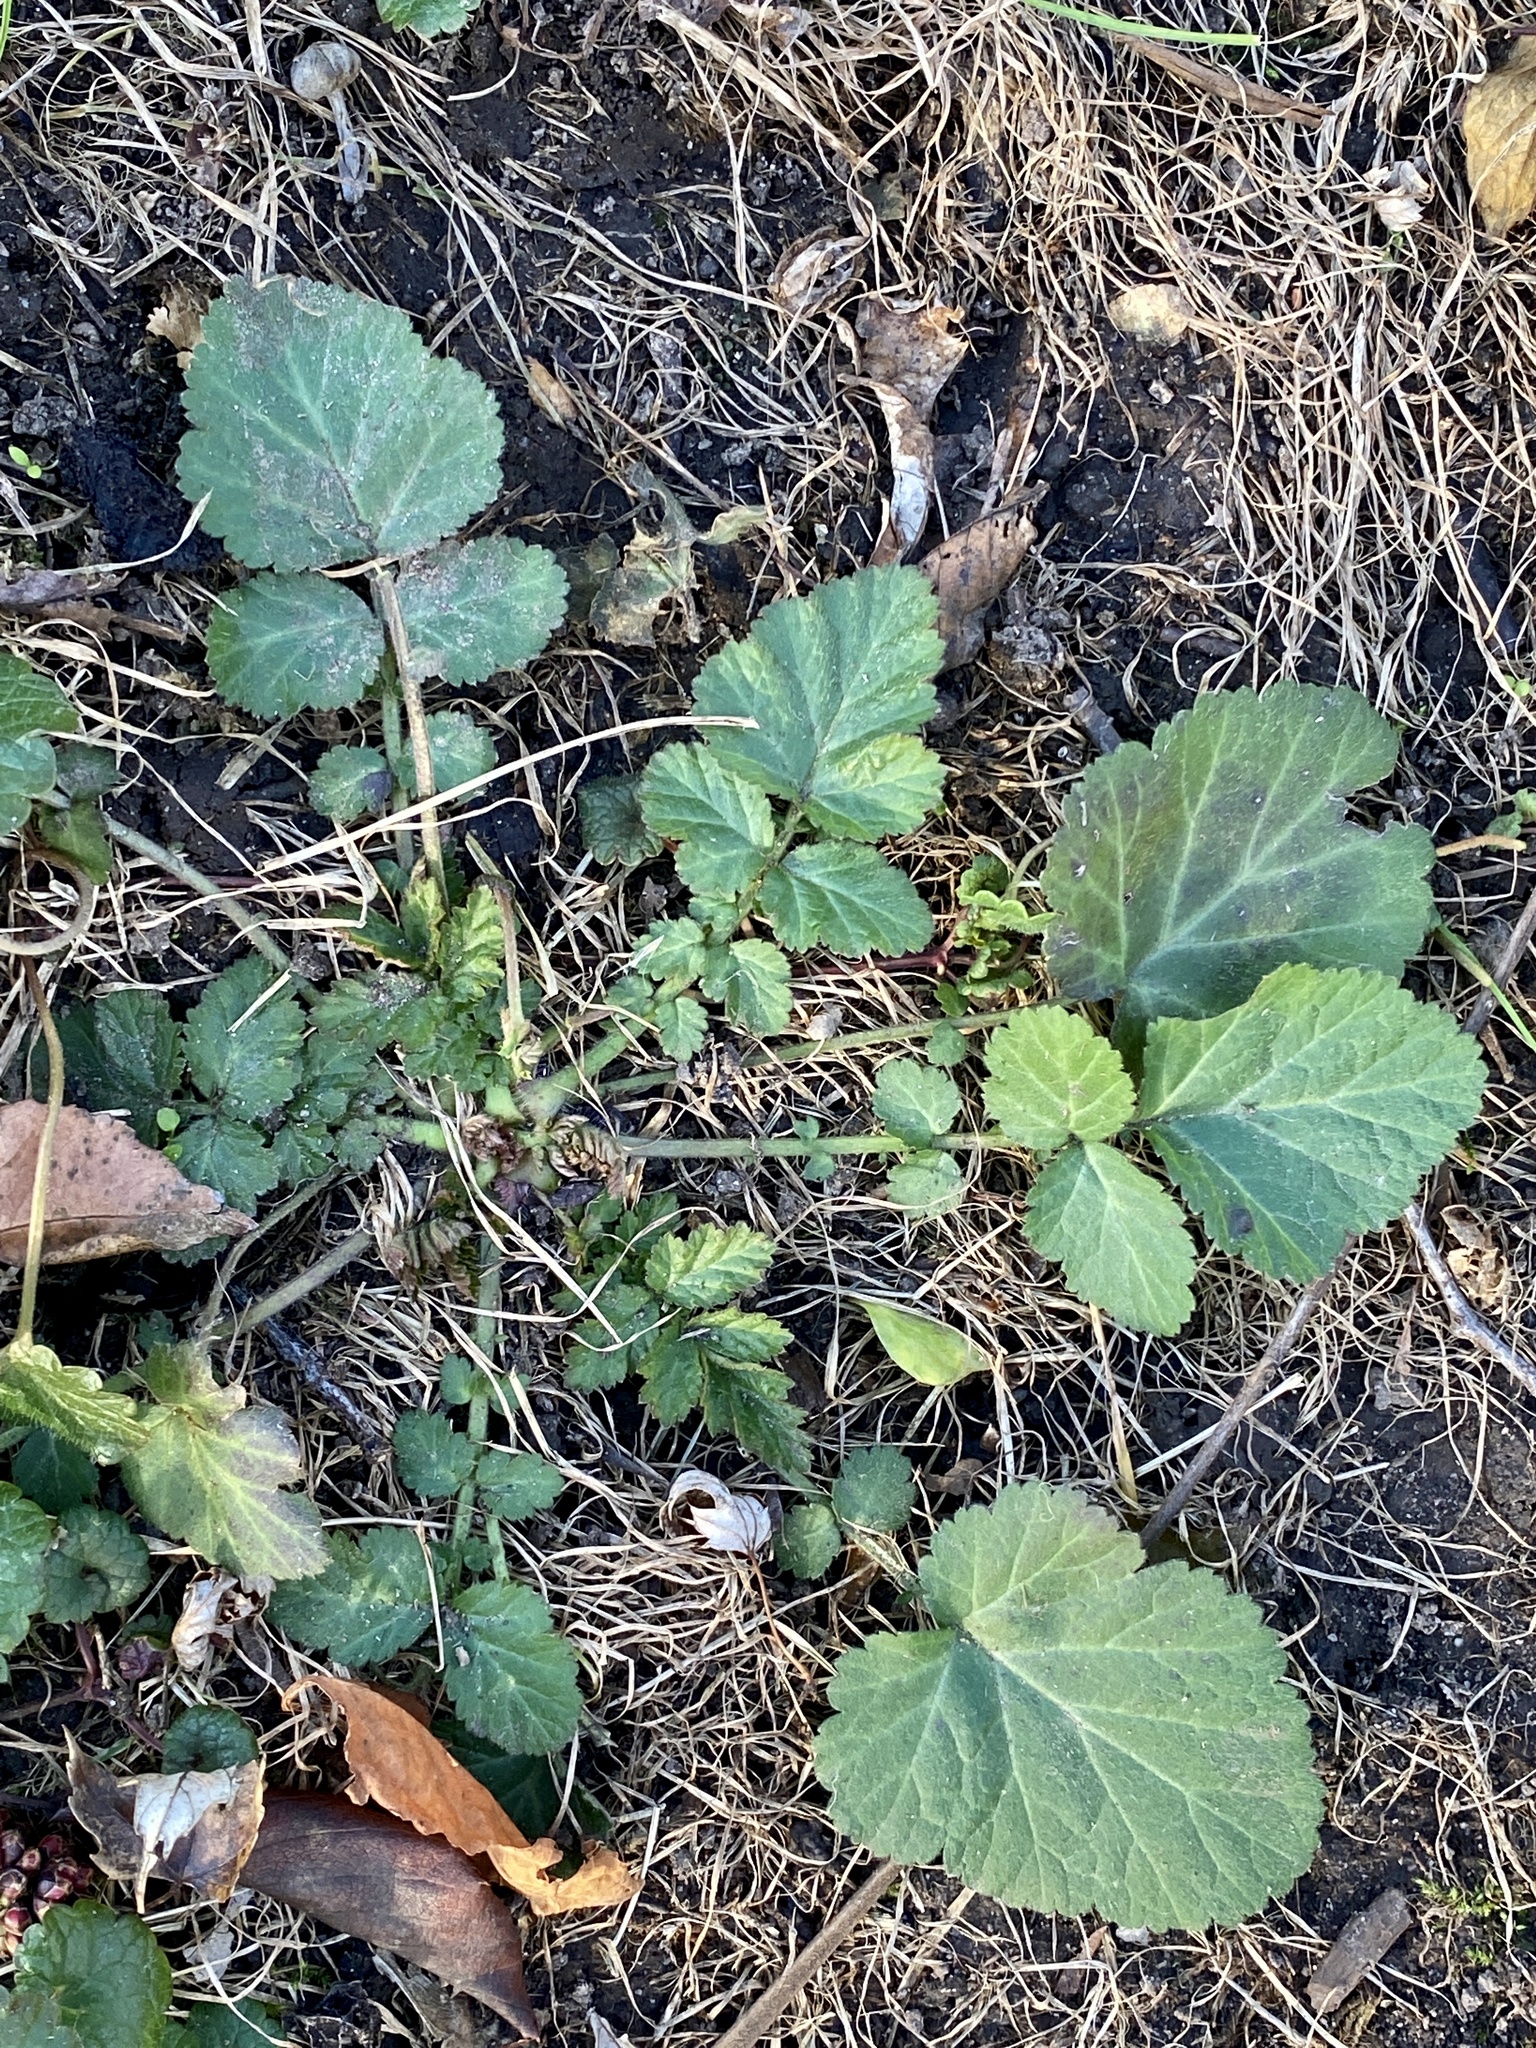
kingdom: Plantae
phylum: Tracheophyta
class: Magnoliopsida
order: Rosales
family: Rosaceae
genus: Geum
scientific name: Geum canadense
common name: White avens
